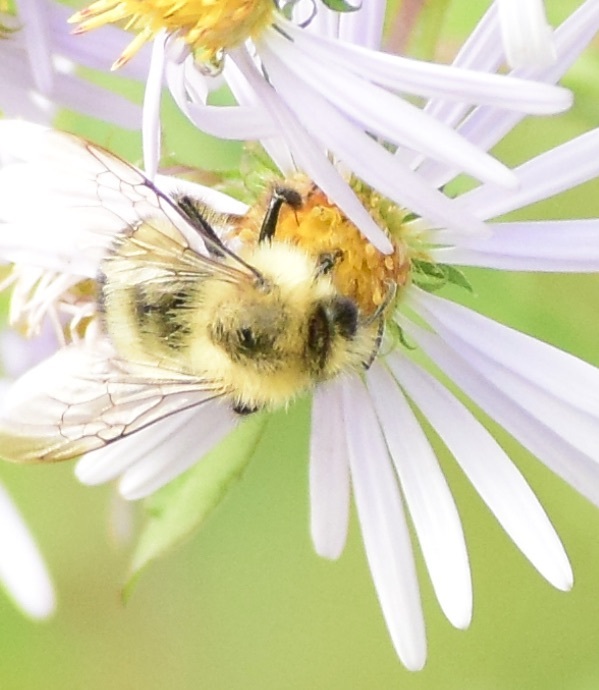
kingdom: Animalia
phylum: Arthropoda
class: Insecta
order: Hymenoptera
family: Apidae
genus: Pyrobombus
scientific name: Pyrobombus
